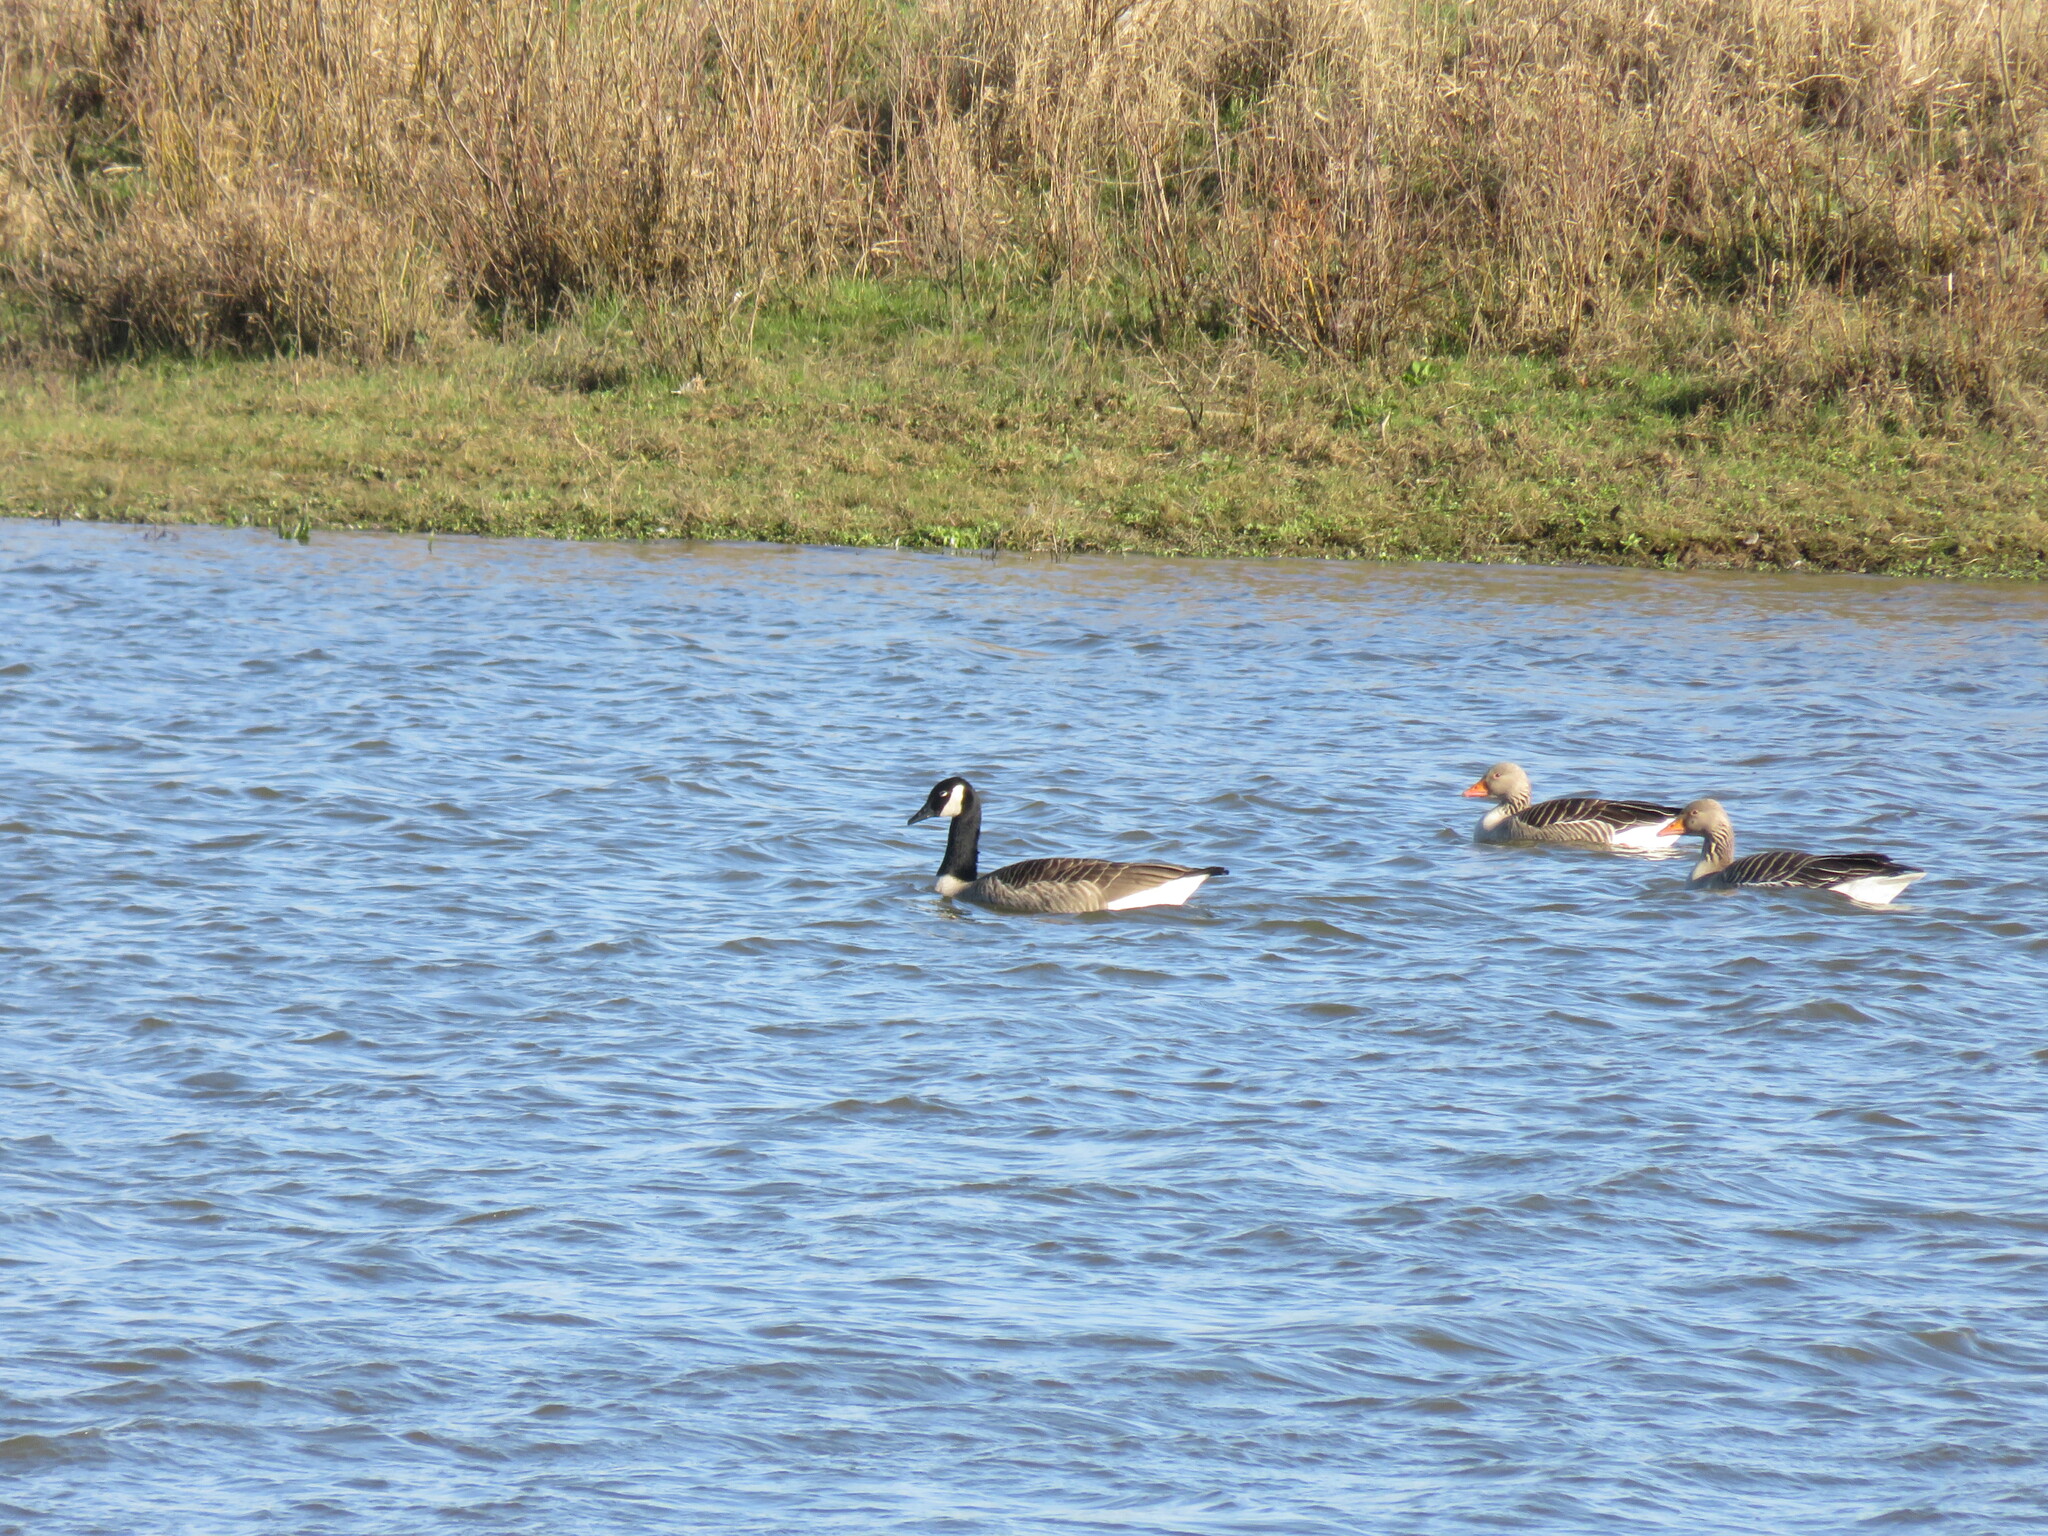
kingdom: Animalia
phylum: Chordata
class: Aves
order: Anseriformes
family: Anatidae
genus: Branta
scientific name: Branta canadensis
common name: Canada goose
